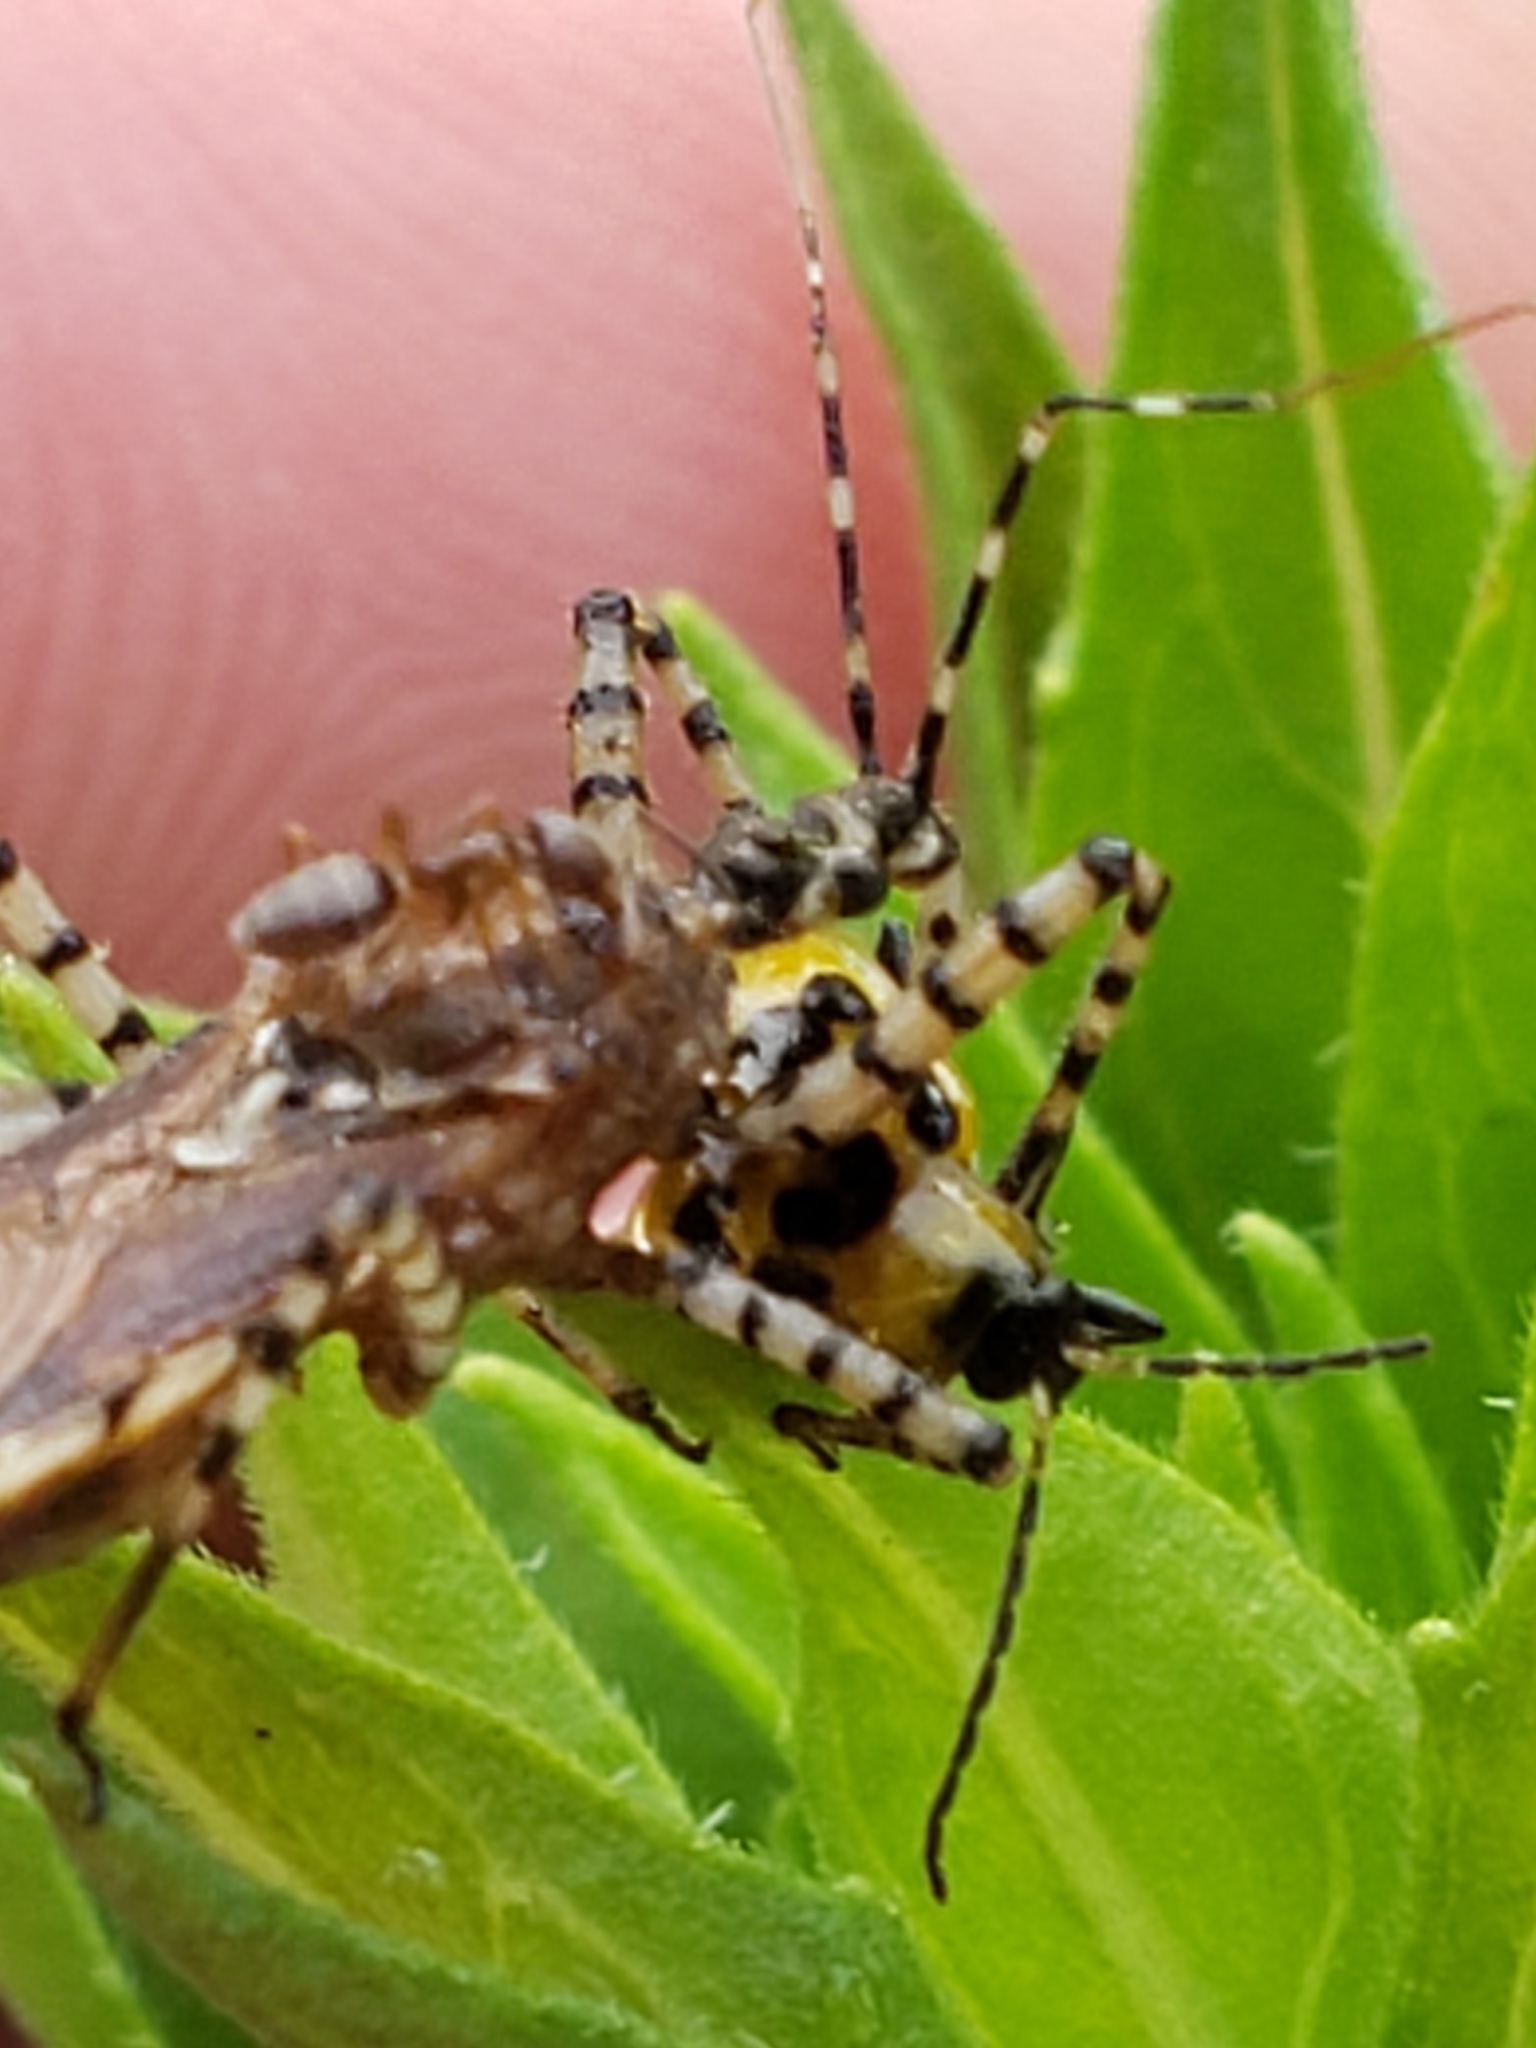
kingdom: Animalia
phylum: Arthropoda
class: Insecta
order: Coleoptera
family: Chrysomelidae
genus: Diabrotica
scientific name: Diabrotica undecimpunctata
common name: Spotted cucumber beetle
